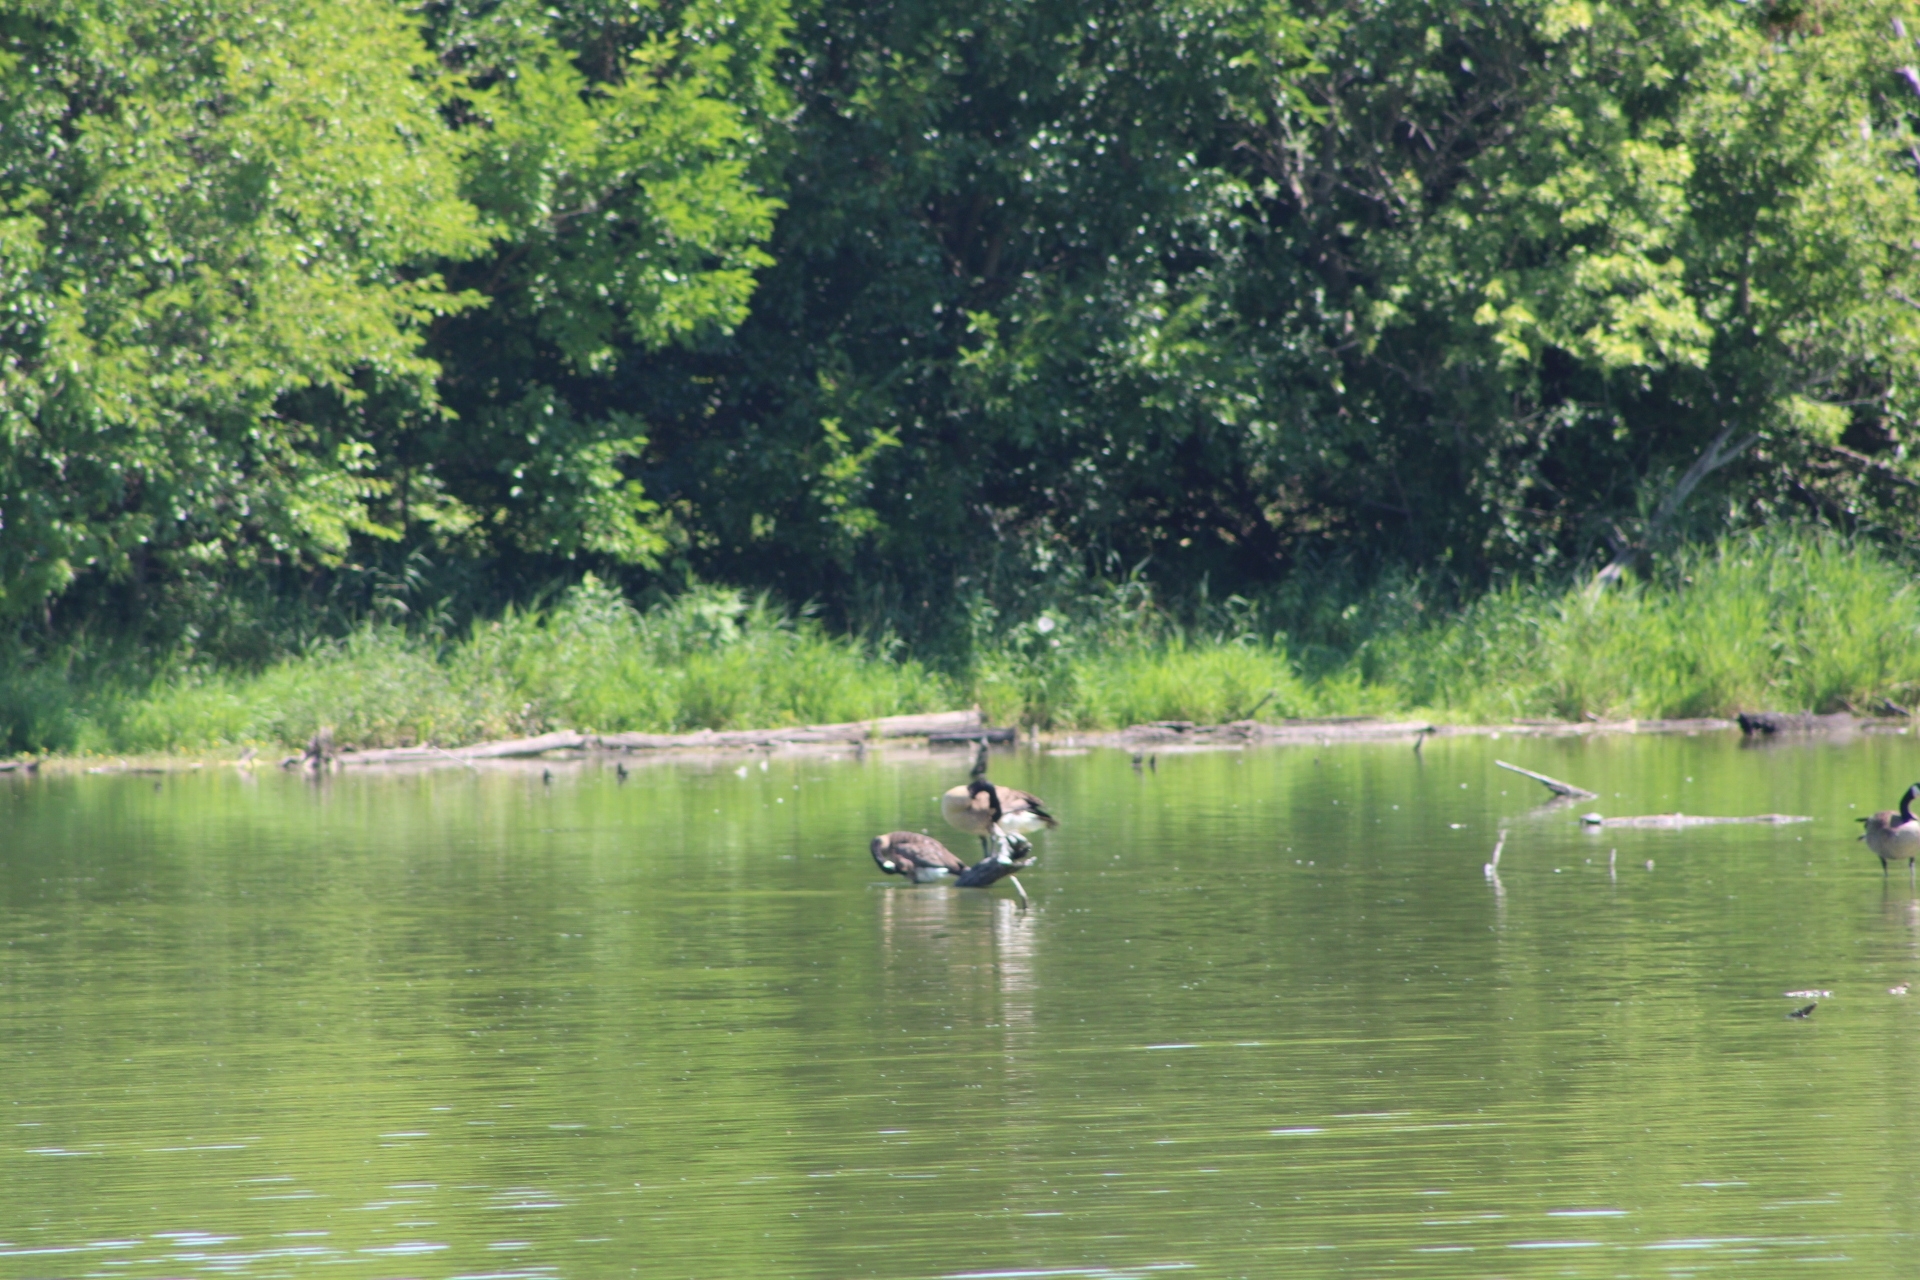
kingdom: Animalia
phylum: Chordata
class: Aves
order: Anseriformes
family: Anatidae
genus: Branta
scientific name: Branta canadensis
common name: Canada goose
